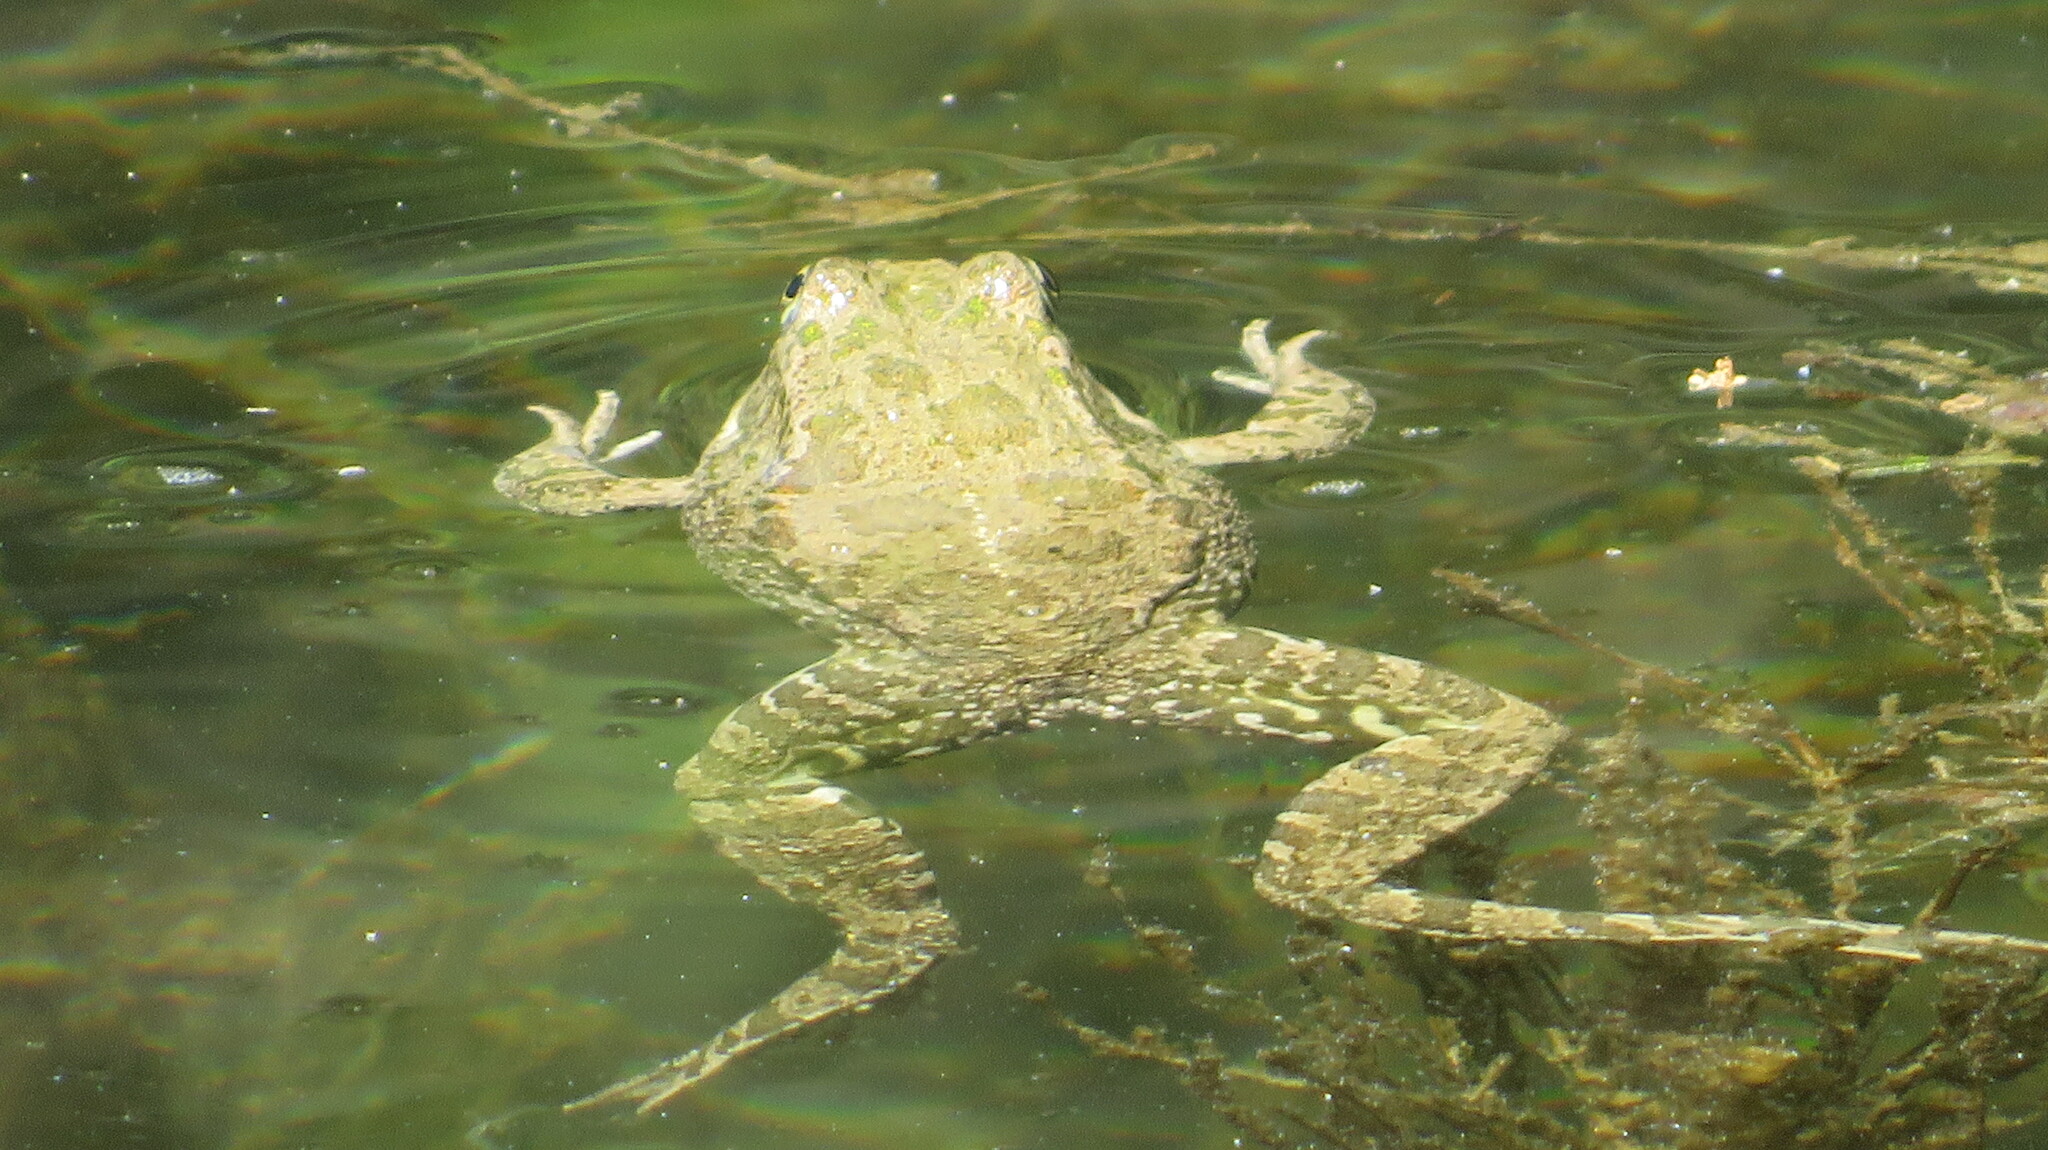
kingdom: Animalia
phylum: Chordata
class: Amphibia
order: Anura
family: Ranidae
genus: Pelophylax
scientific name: Pelophylax ridibundus
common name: Marsh frog
